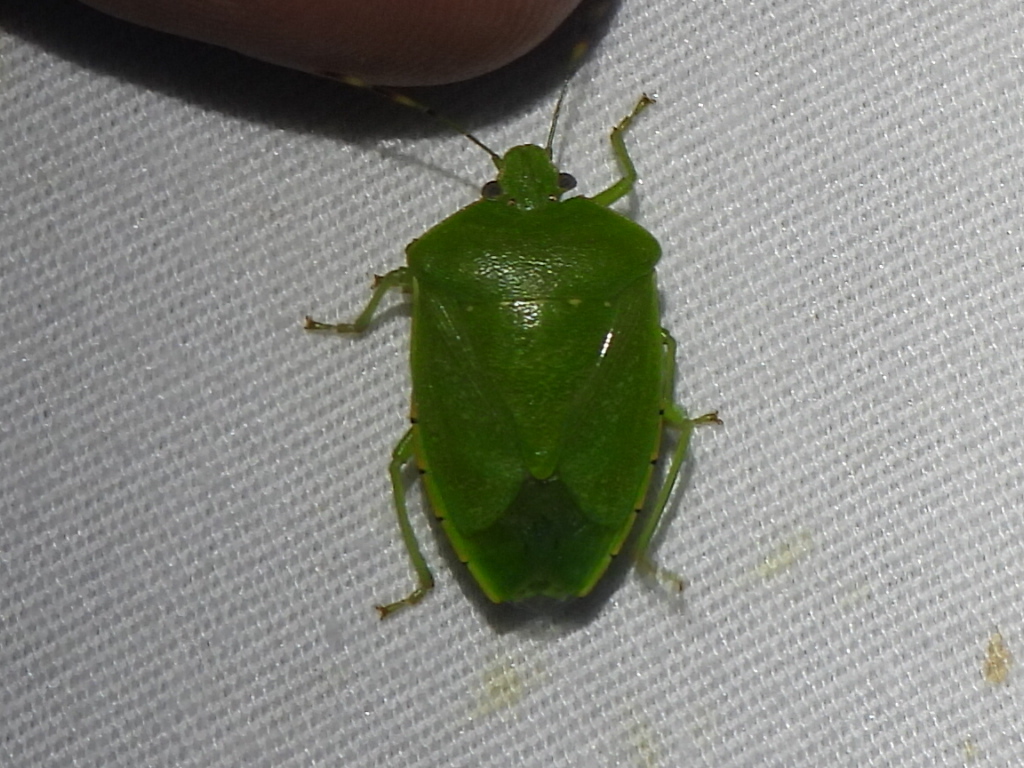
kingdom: Animalia
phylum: Arthropoda
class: Insecta
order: Hemiptera
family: Pentatomidae
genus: Chinavia
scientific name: Chinavia hilaris
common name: Green stink bug
